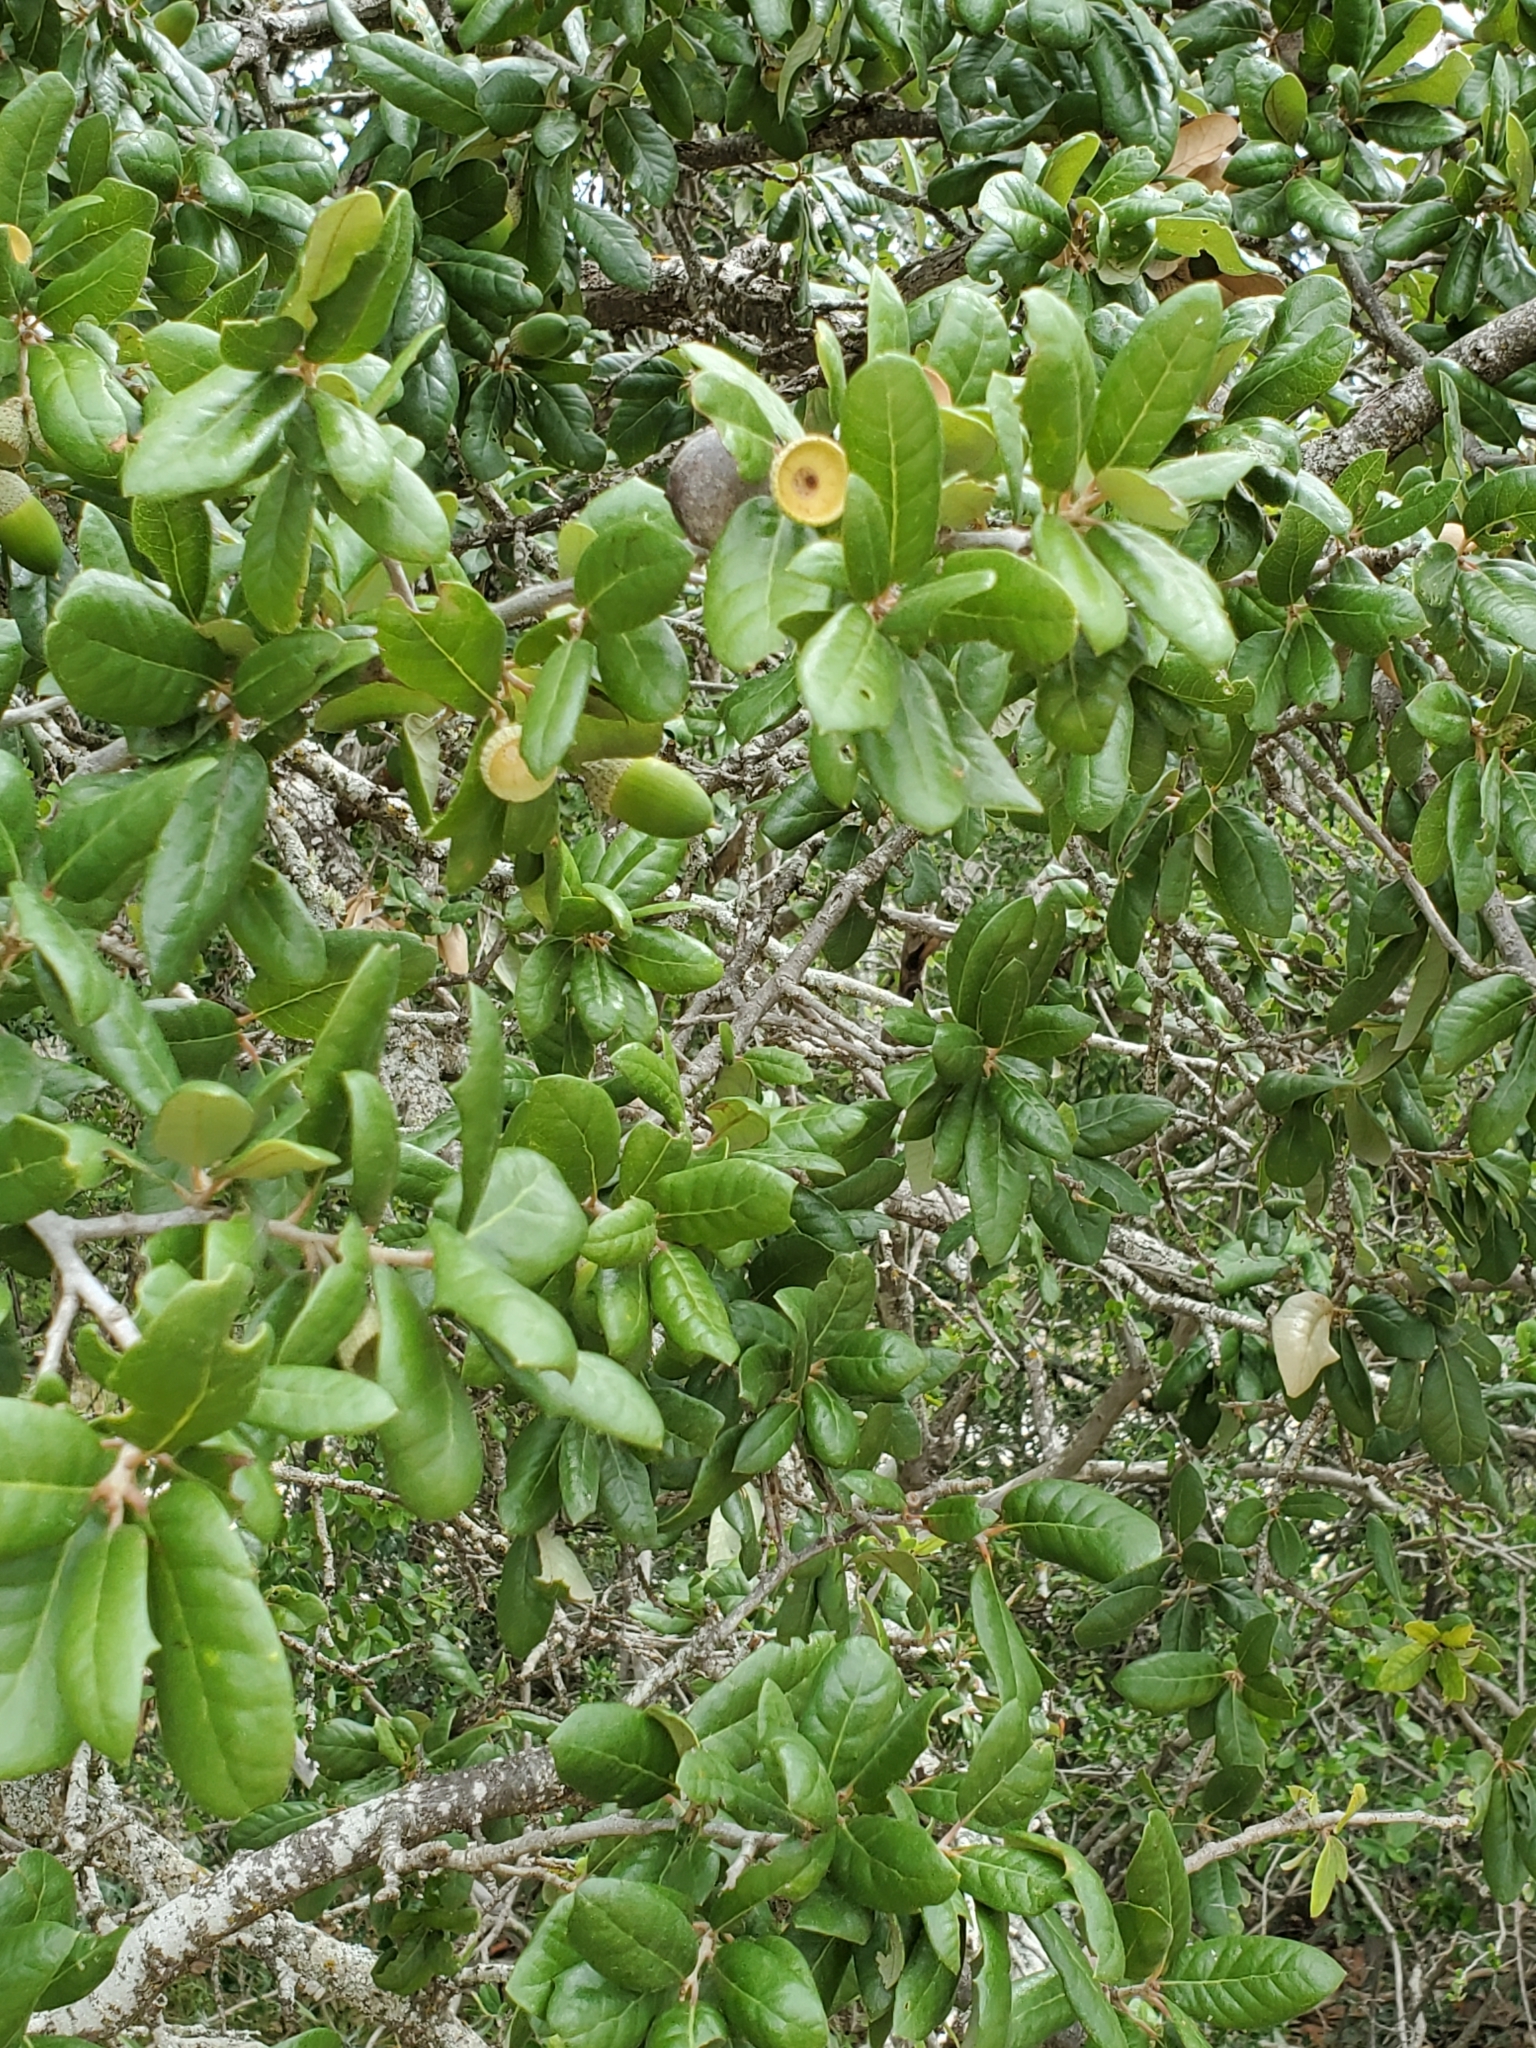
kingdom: Plantae
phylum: Tracheophyta
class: Magnoliopsida
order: Fagales
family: Fagaceae
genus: Quercus
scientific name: Quercus fusiformis
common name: Texas live oak
